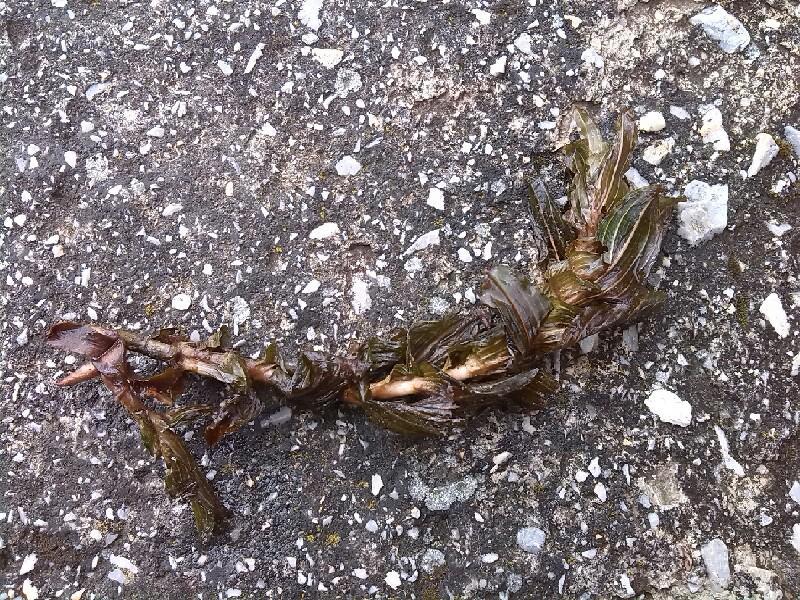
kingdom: Plantae
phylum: Tracheophyta
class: Liliopsida
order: Alismatales
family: Potamogetonaceae
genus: Potamogeton
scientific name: Potamogeton perfoliatus
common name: Perfoliate pondweed
